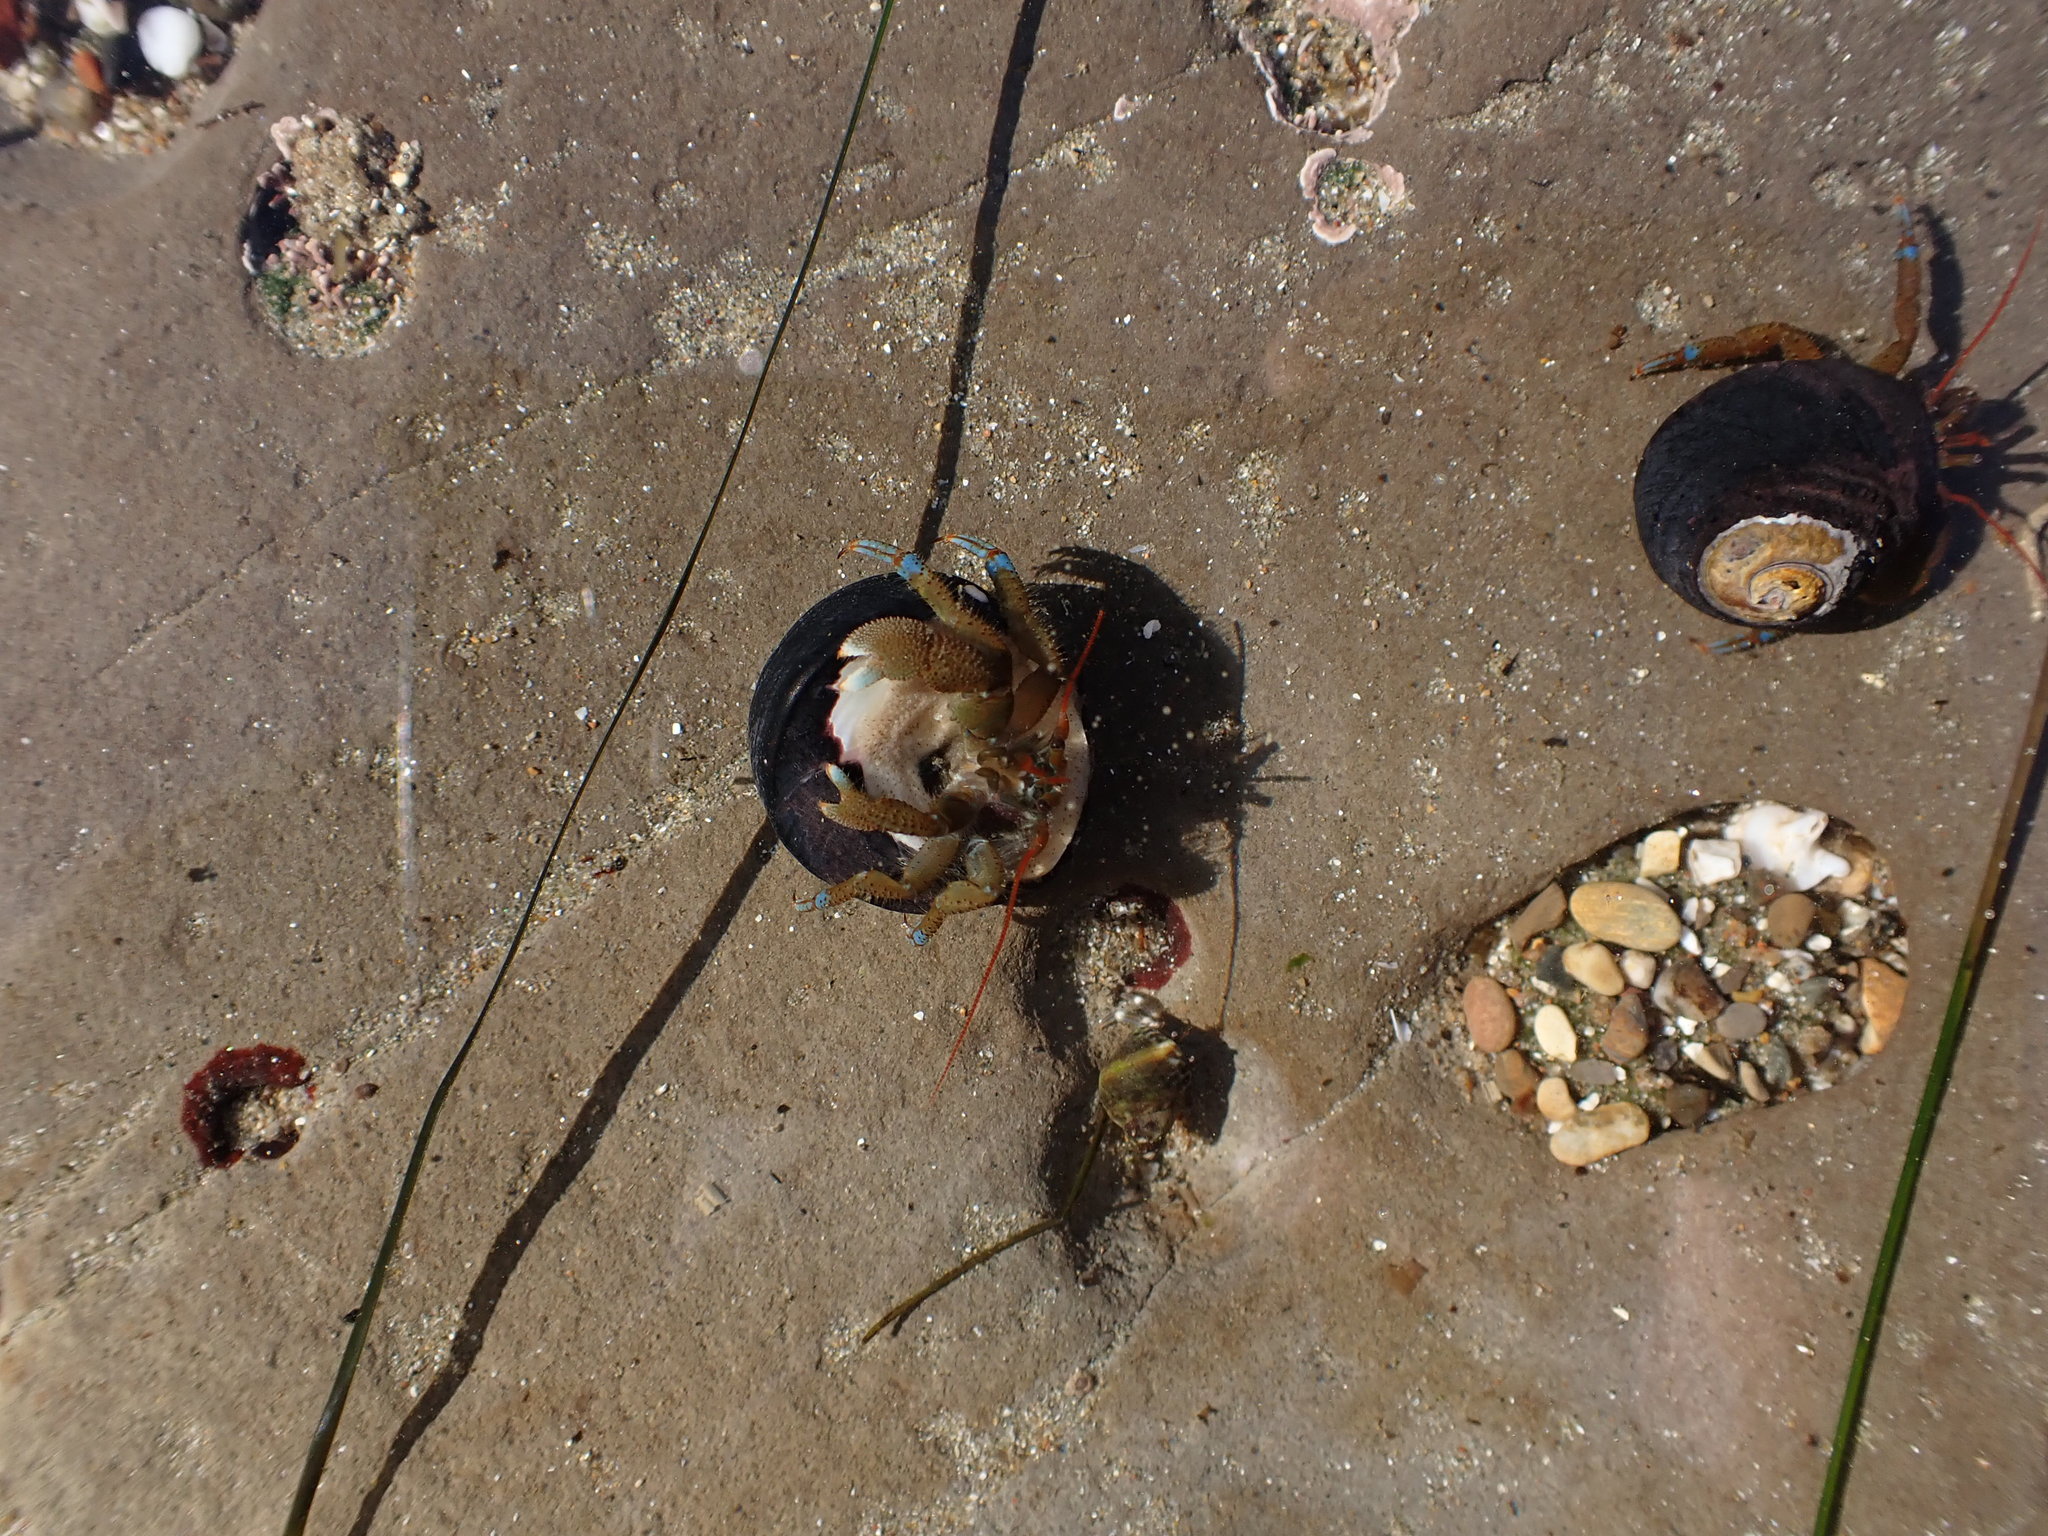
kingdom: Animalia
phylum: Arthropoda
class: Malacostraca
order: Decapoda
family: Paguridae
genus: Pagurus
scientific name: Pagurus samuelis
